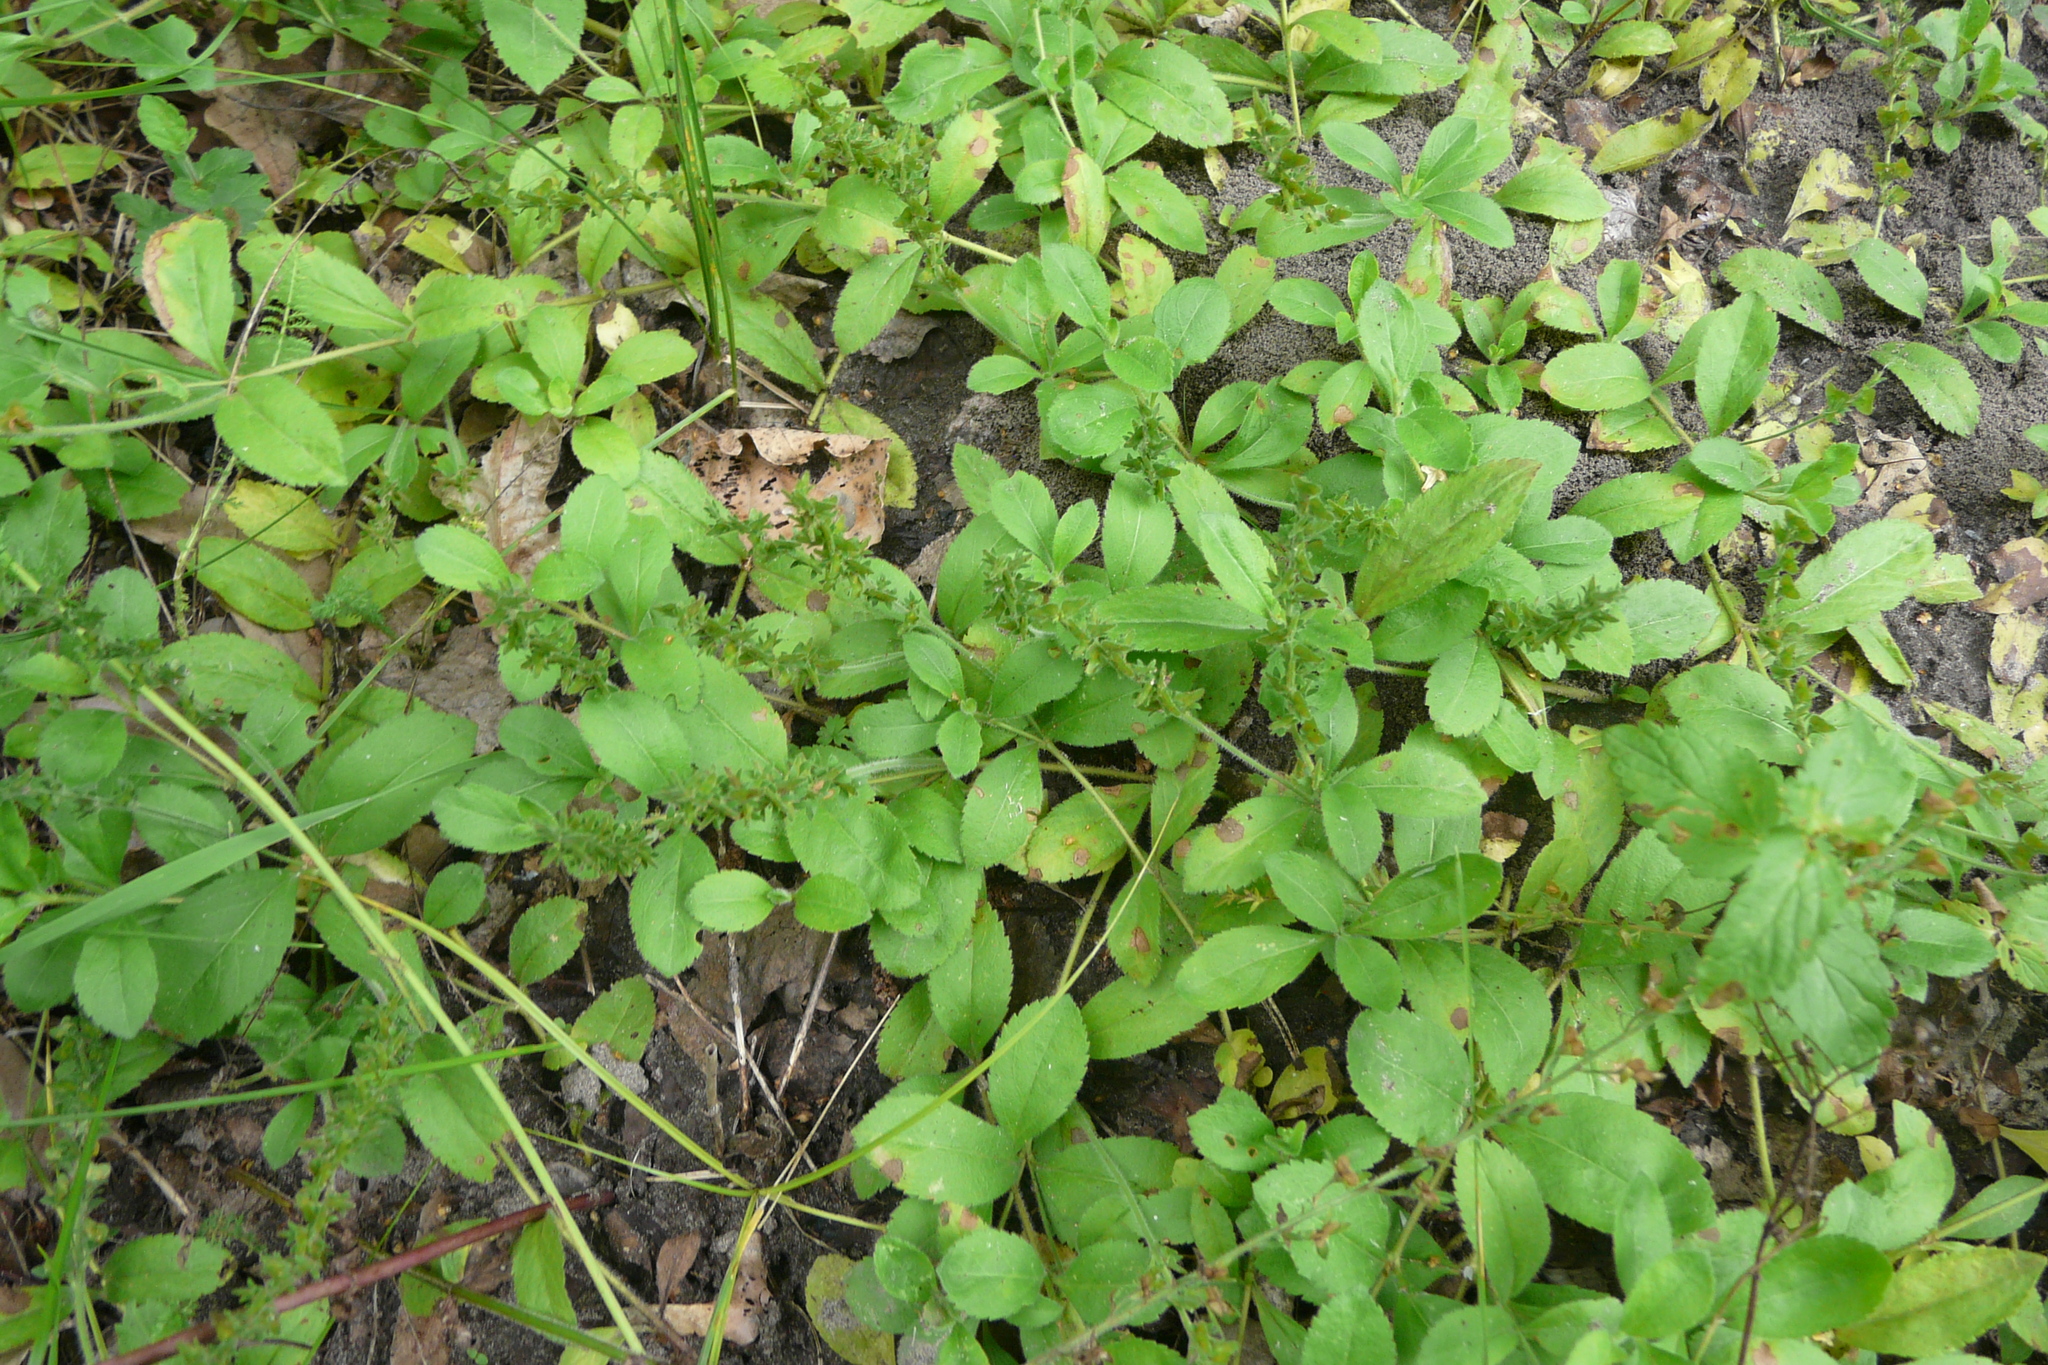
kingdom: Plantae
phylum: Tracheophyta
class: Magnoliopsida
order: Lamiales
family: Plantaginaceae
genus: Veronica
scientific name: Veronica officinalis
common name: Common speedwell
